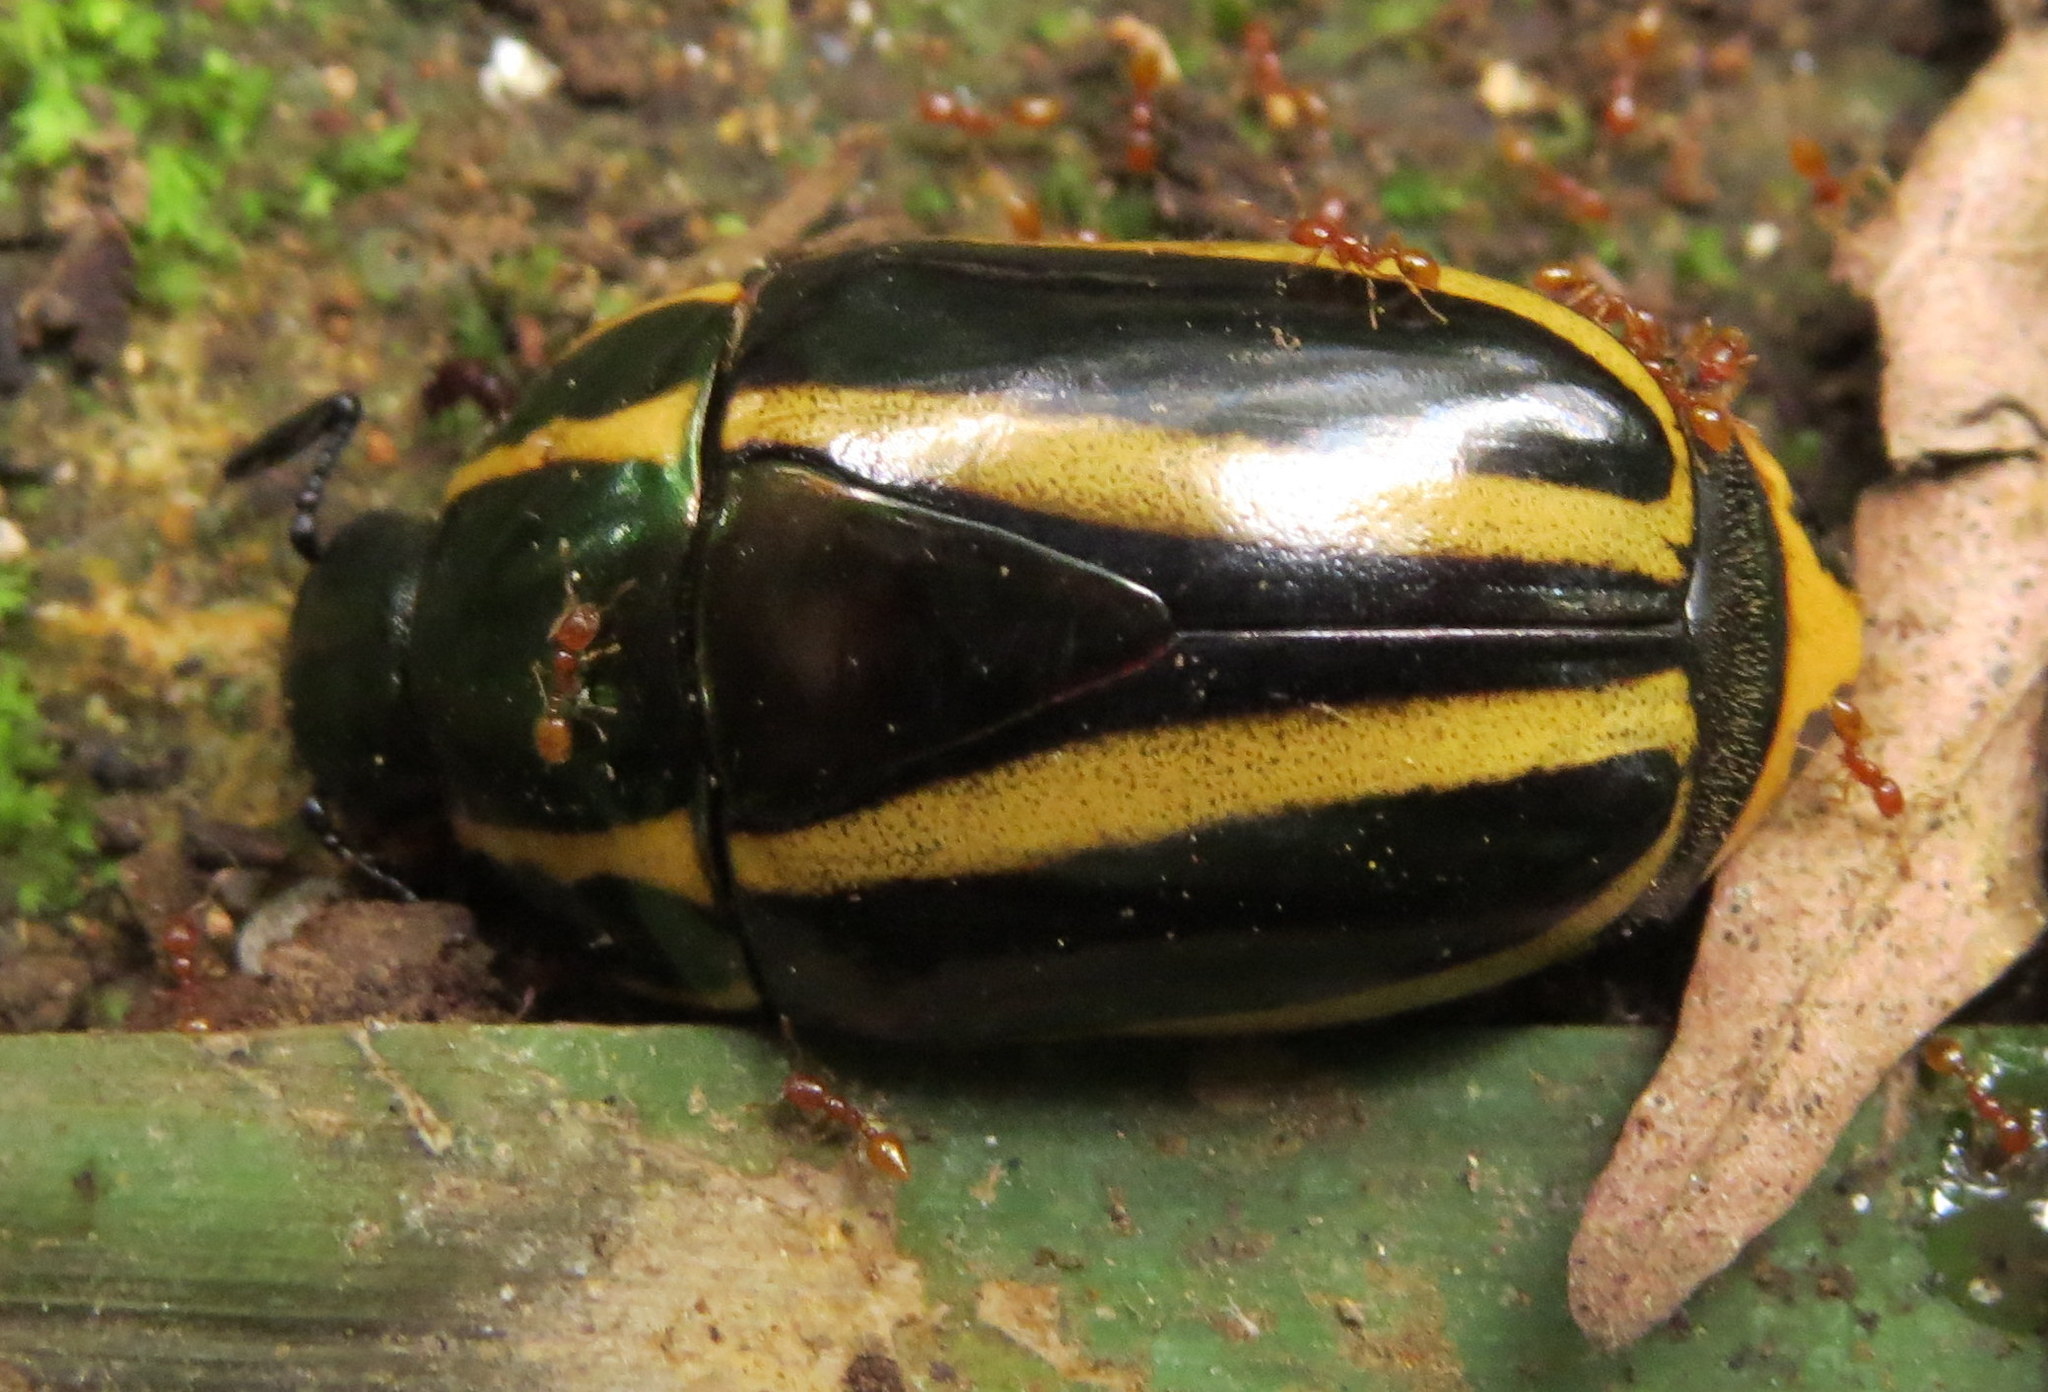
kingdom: Animalia
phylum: Arthropoda
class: Insecta
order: Coleoptera
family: Scarabaeidae
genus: Macraspis
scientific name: Macraspis jamesi
